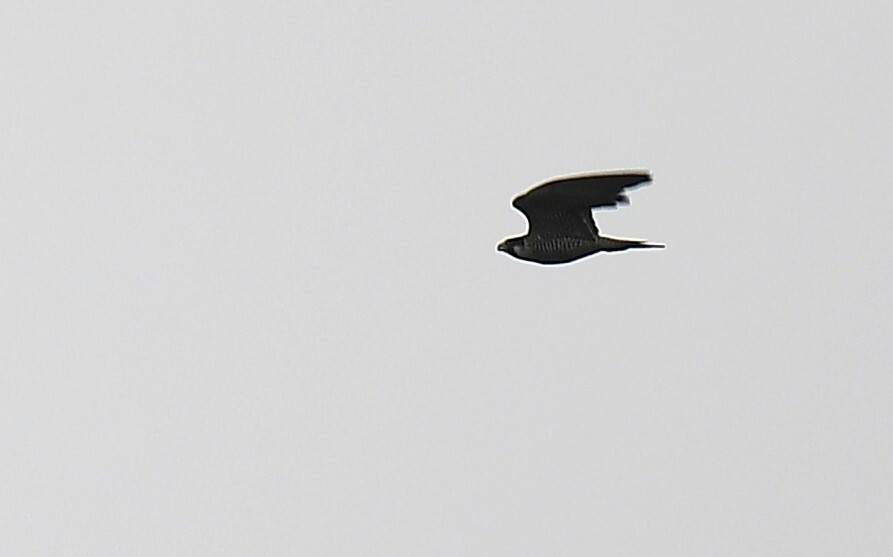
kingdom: Animalia
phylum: Chordata
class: Aves
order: Falconiformes
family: Falconidae
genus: Falco
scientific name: Falco peregrinus
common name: Peregrine falcon
